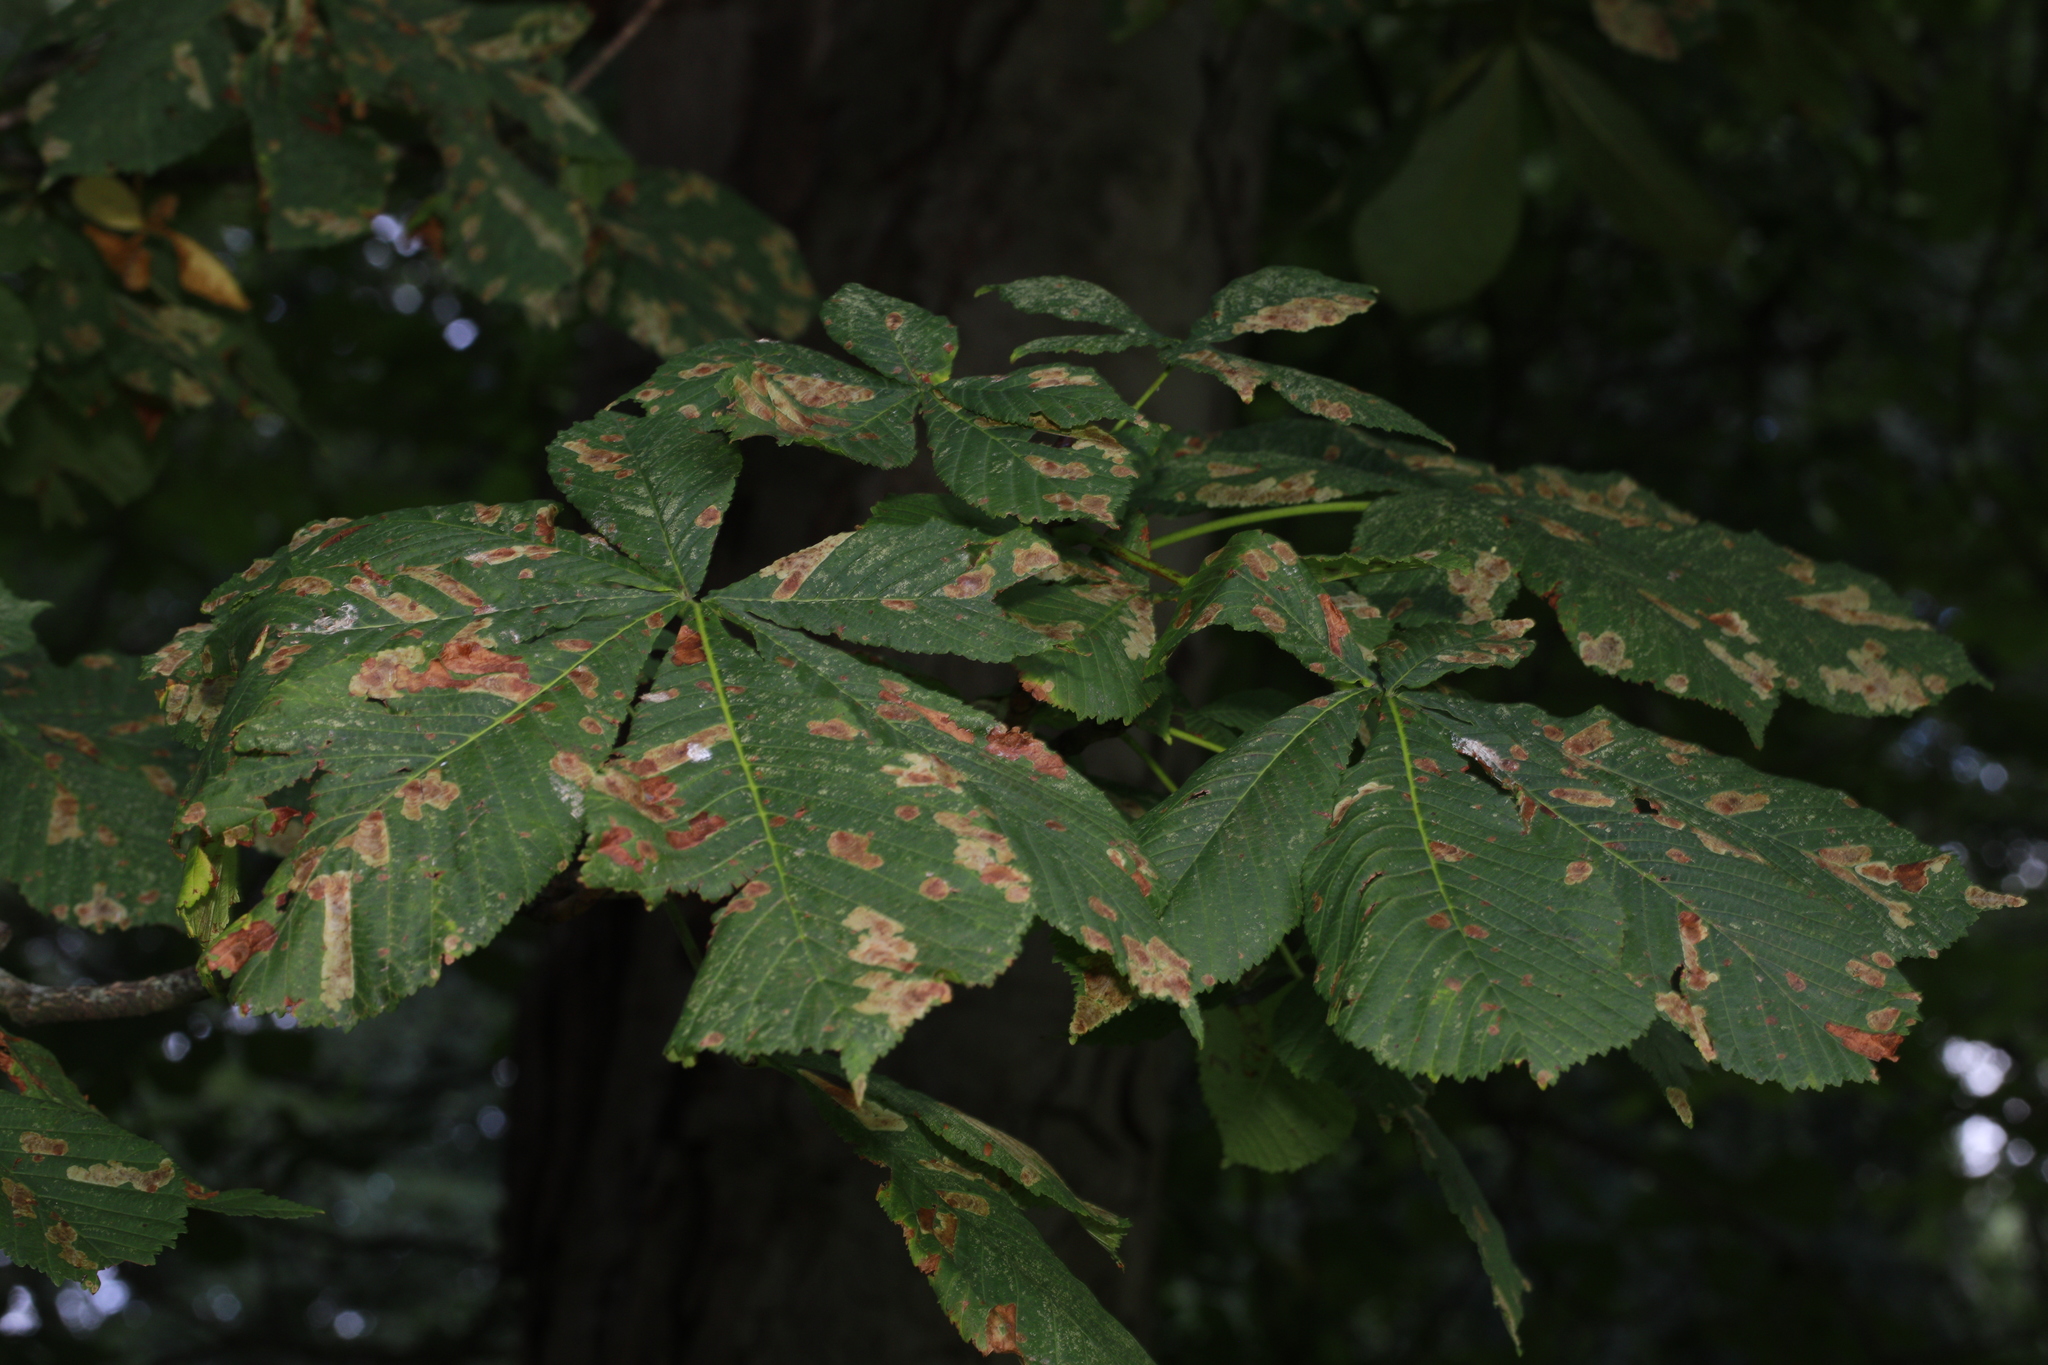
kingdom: Animalia
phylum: Arthropoda
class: Insecta
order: Lepidoptera
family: Gracillariidae
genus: Cameraria
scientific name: Cameraria ohridella
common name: Horse-chestnut leaf-miner
